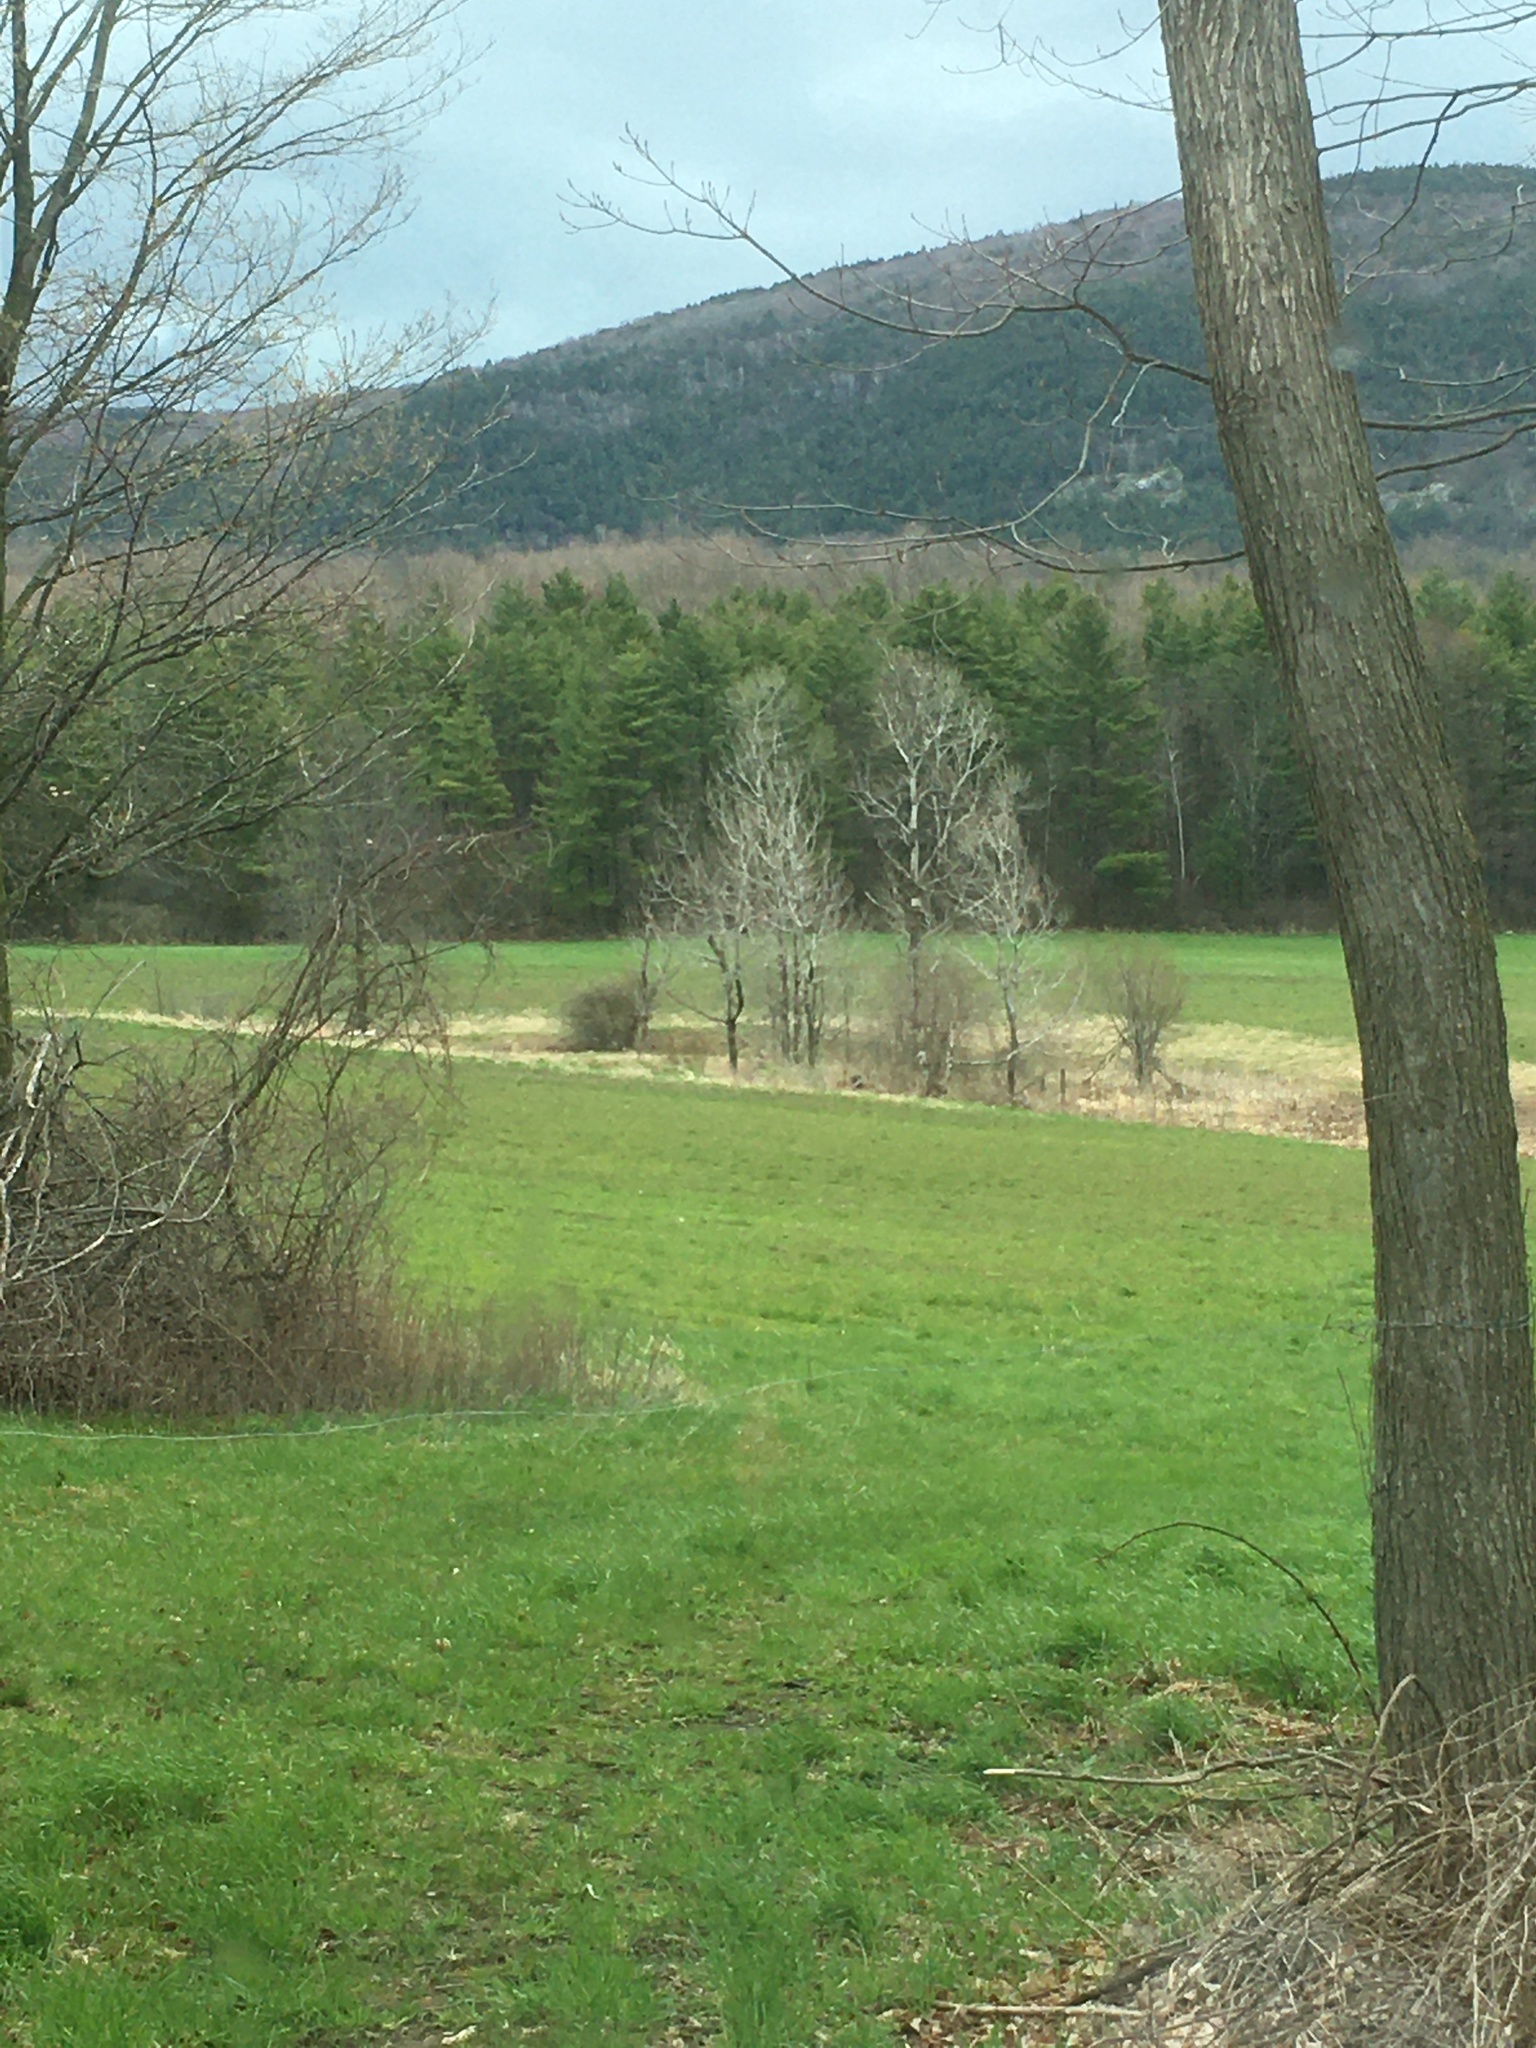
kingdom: Plantae
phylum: Tracheophyta
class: Pinopsida
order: Pinales
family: Pinaceae
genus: Pinus
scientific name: Pinus strobus
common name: Weymouth pine
